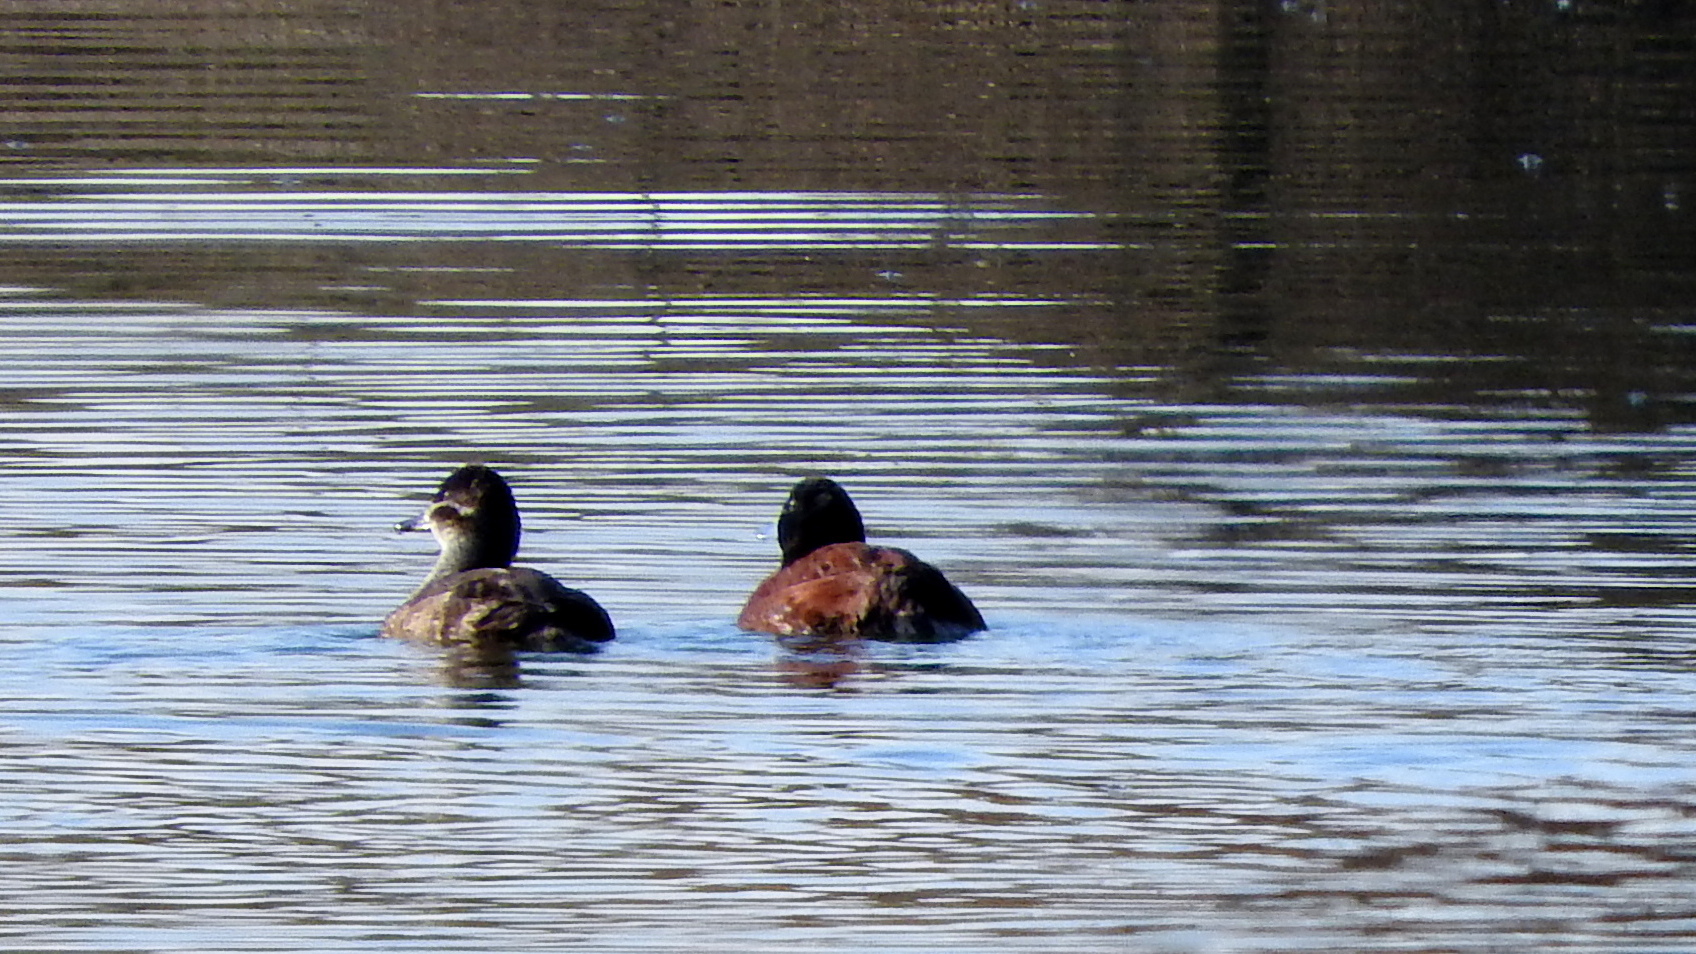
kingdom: Animalia
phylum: Chordata
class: Aves
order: Anseriformes
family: Anatidae
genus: Oxyura
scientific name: Oxyura vittata
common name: Lake duck
